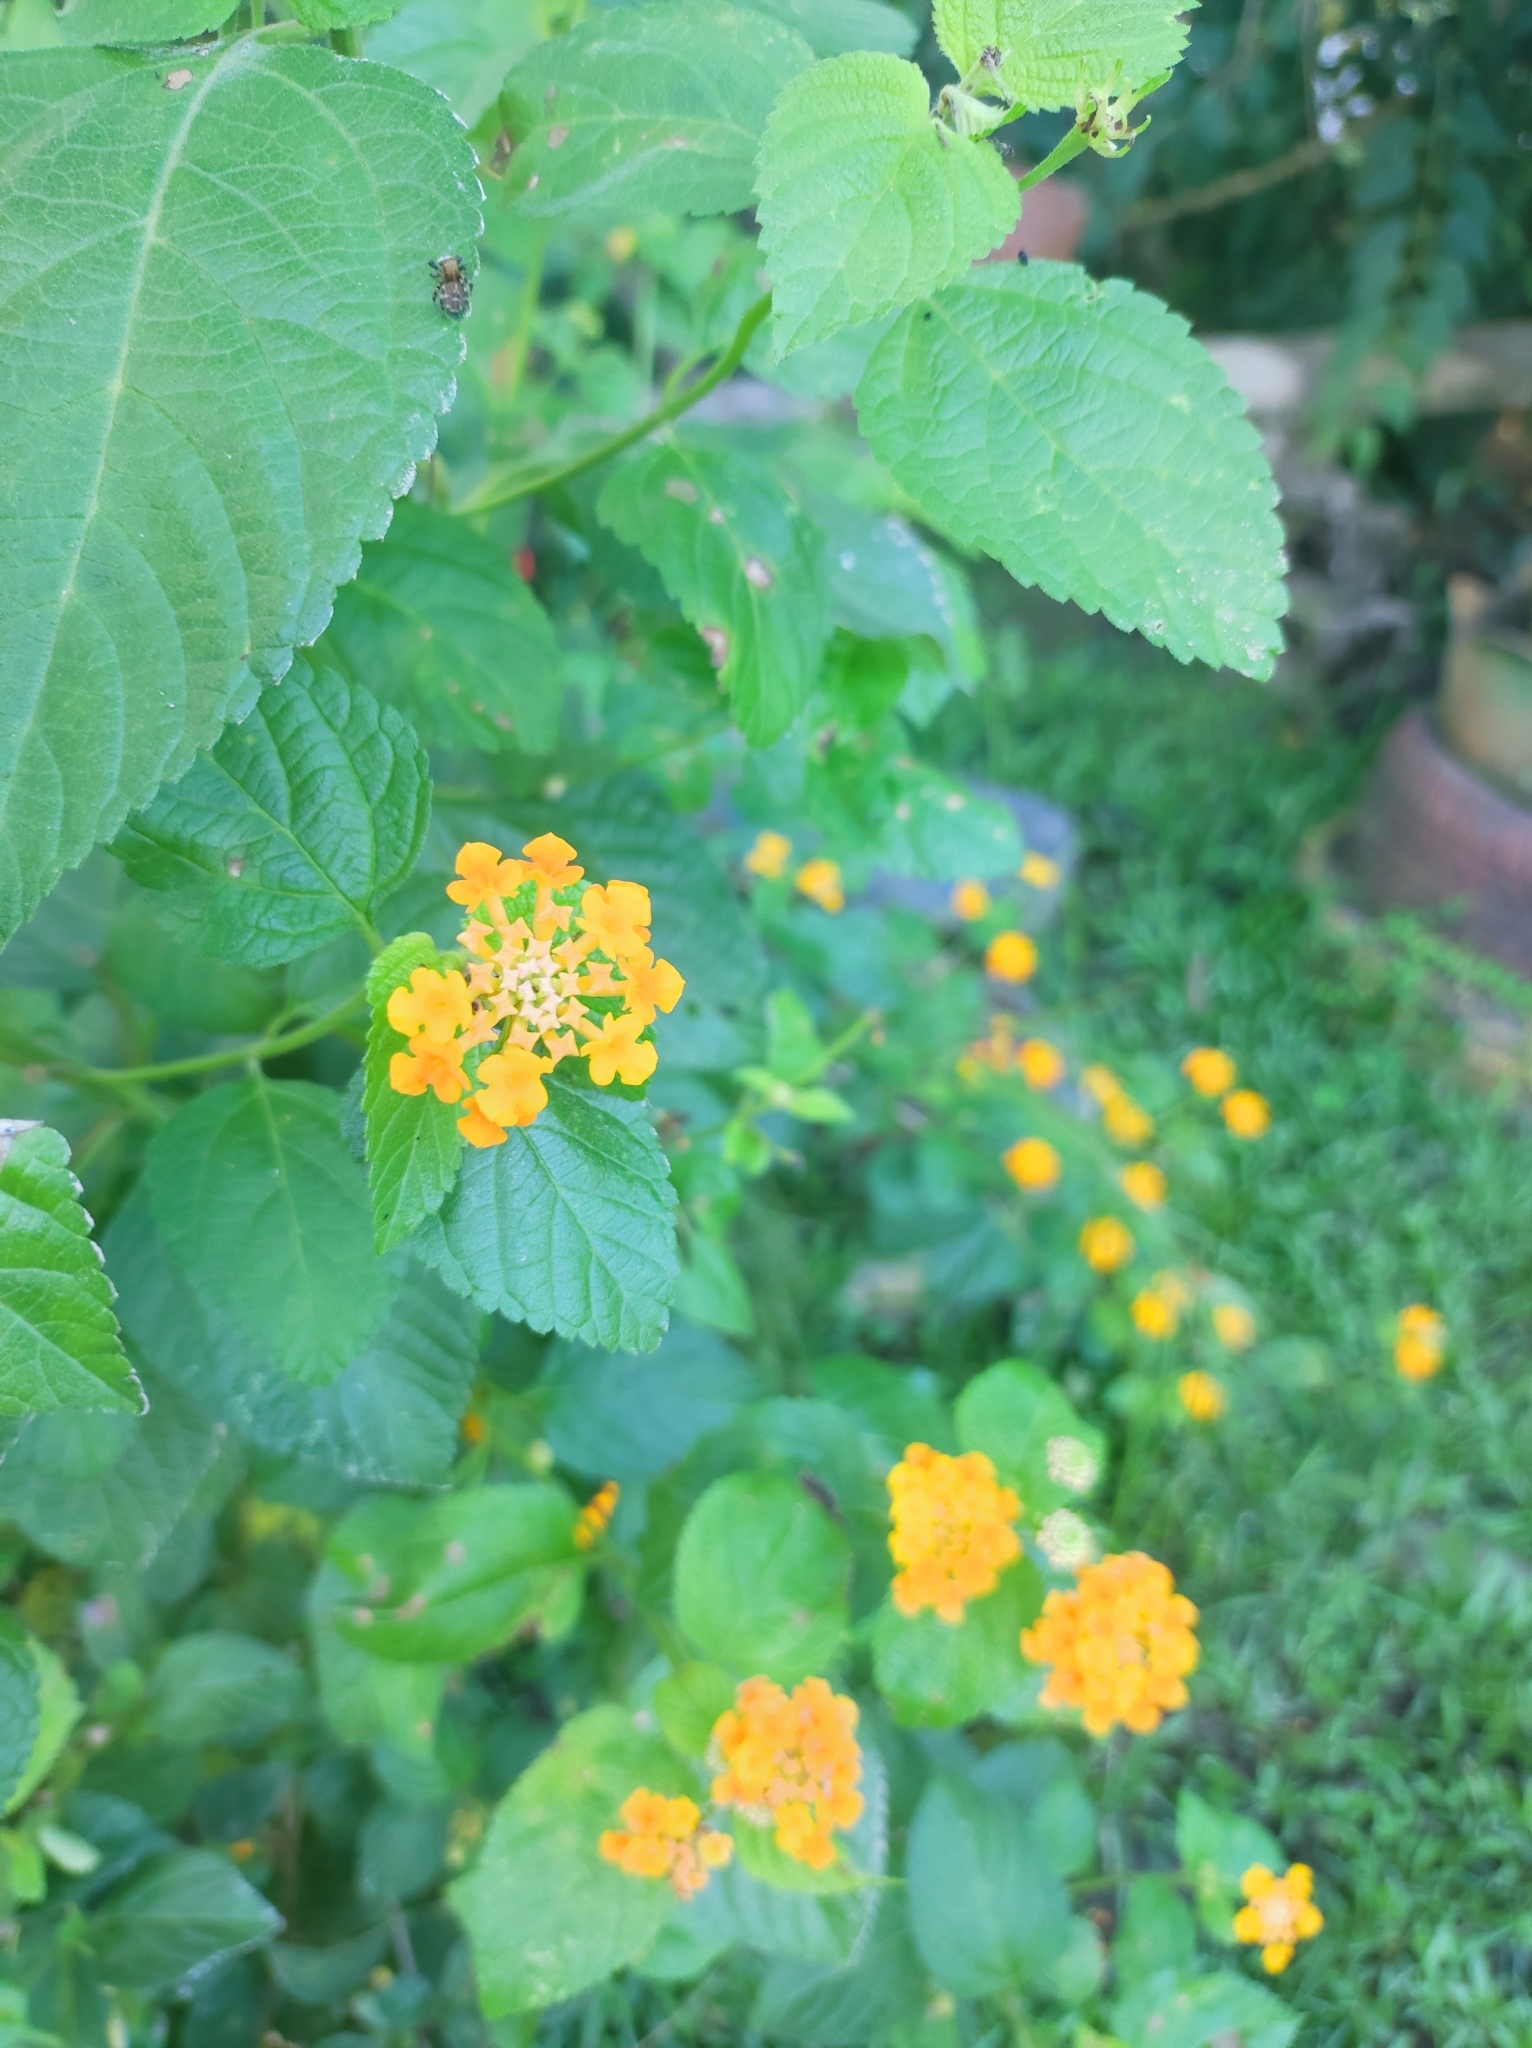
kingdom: Plantae
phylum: Tracheophyta
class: Magnoliopsida
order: Lamiales
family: Verbenaceae
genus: Lantana
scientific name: Lantana camara
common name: Lantana
